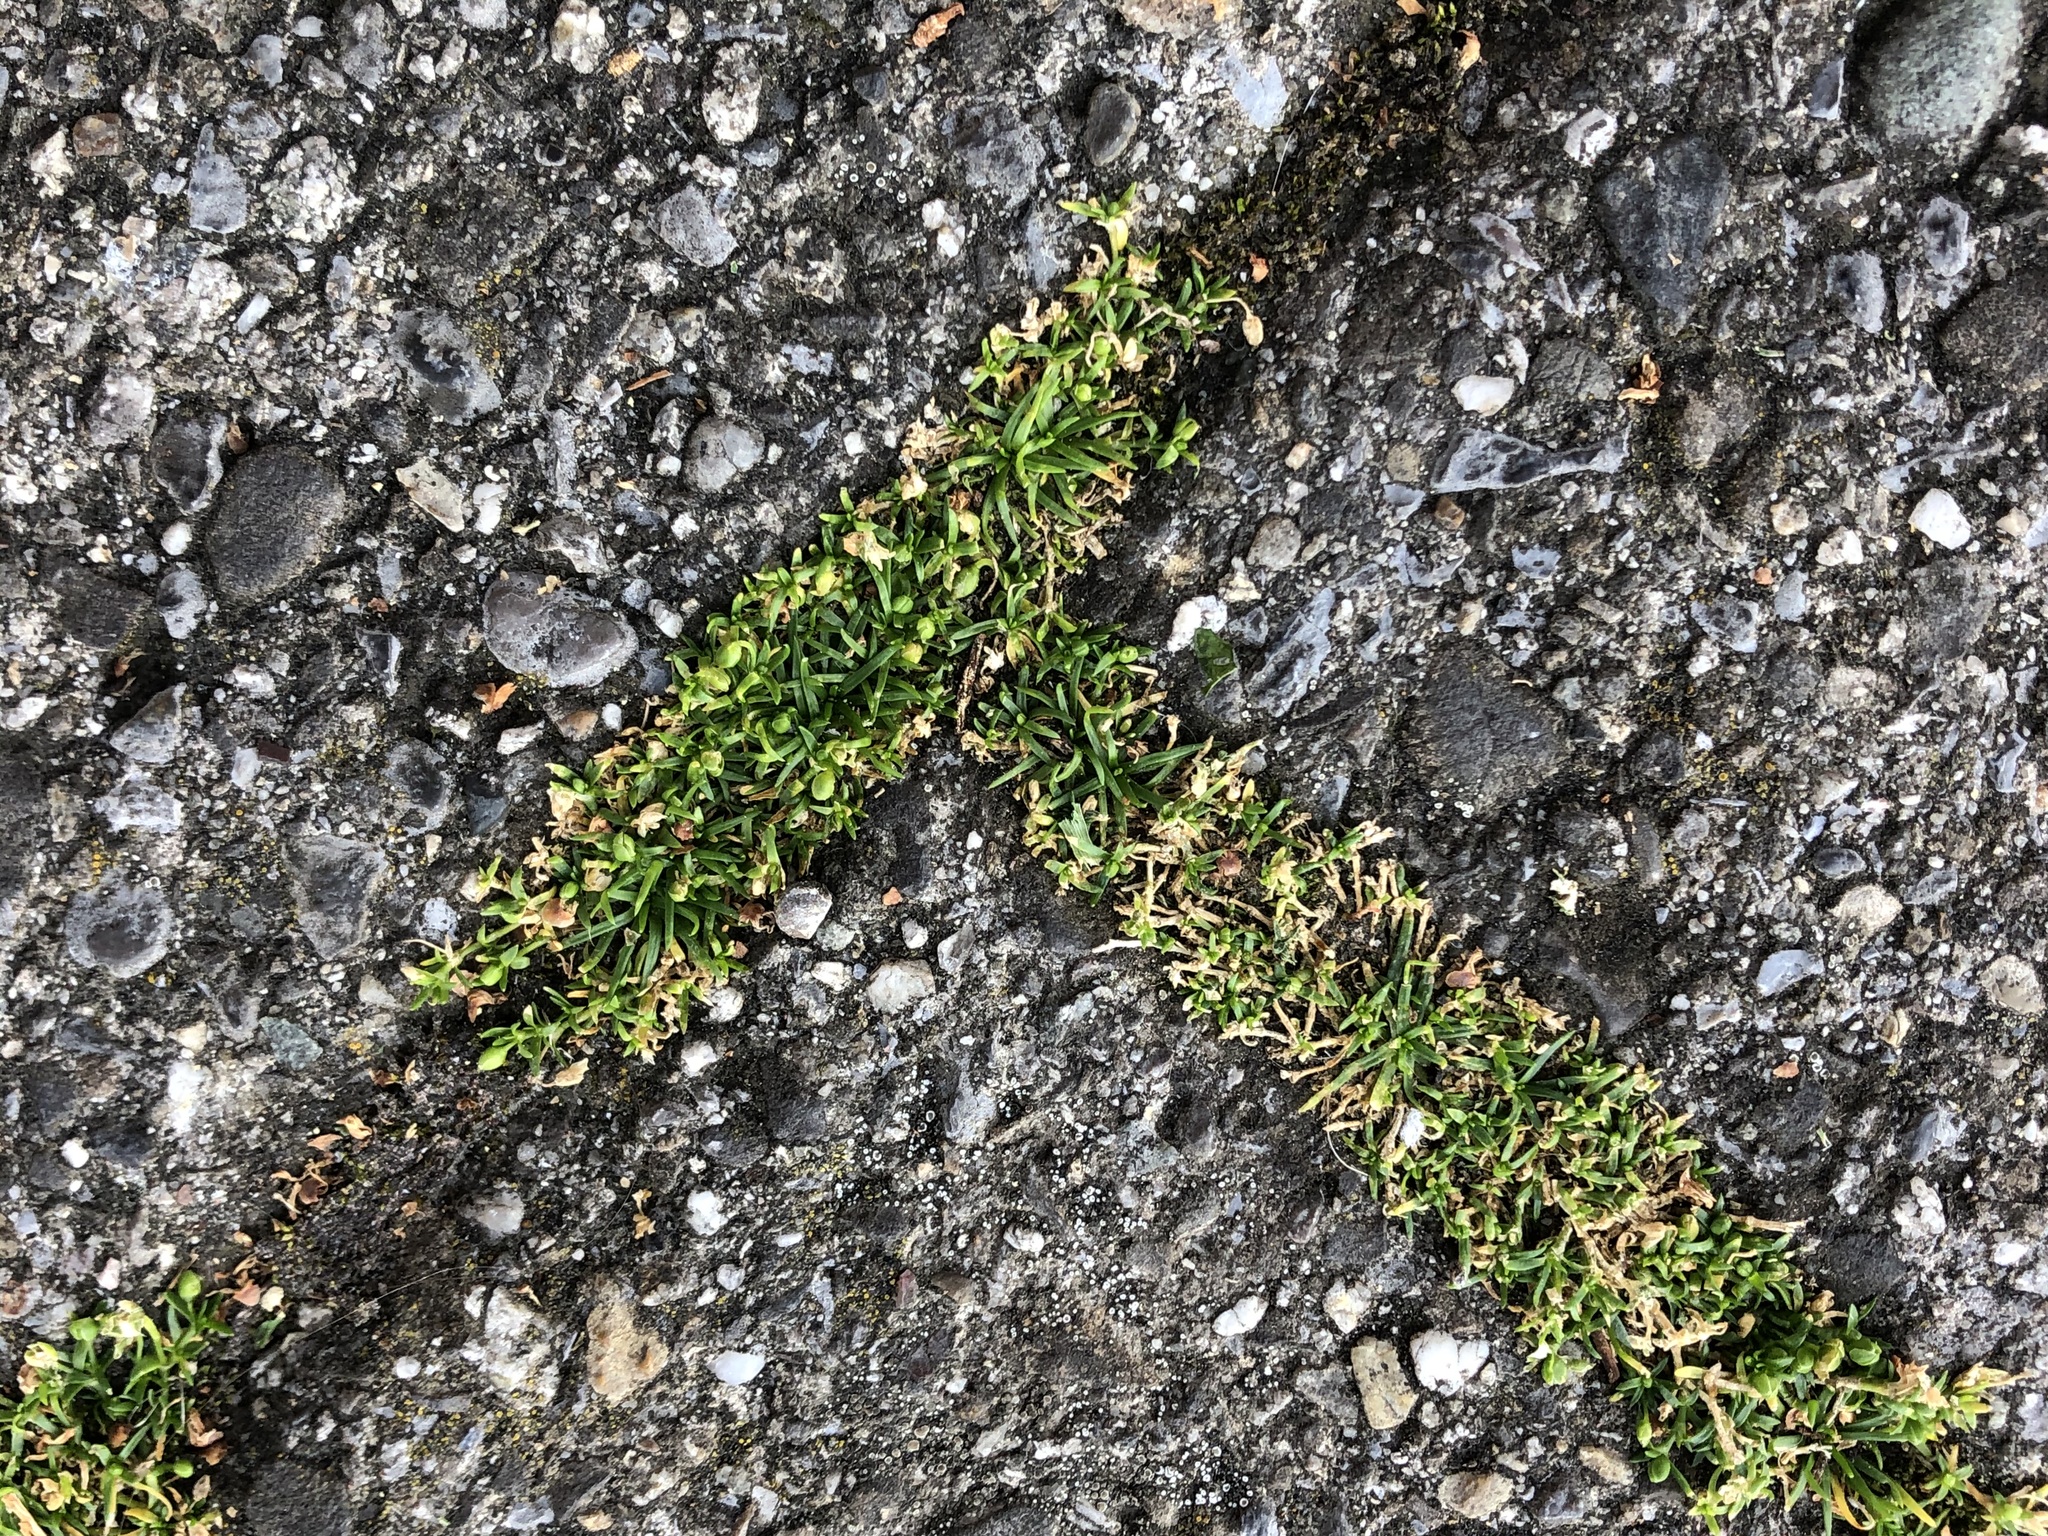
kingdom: Plantae
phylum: Tracheophyta
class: Magnoliopsida
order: Caryophyllales
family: Caryophyllaceae
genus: Sagina
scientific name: Sagina procumbens
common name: Procumbent pearlwort
